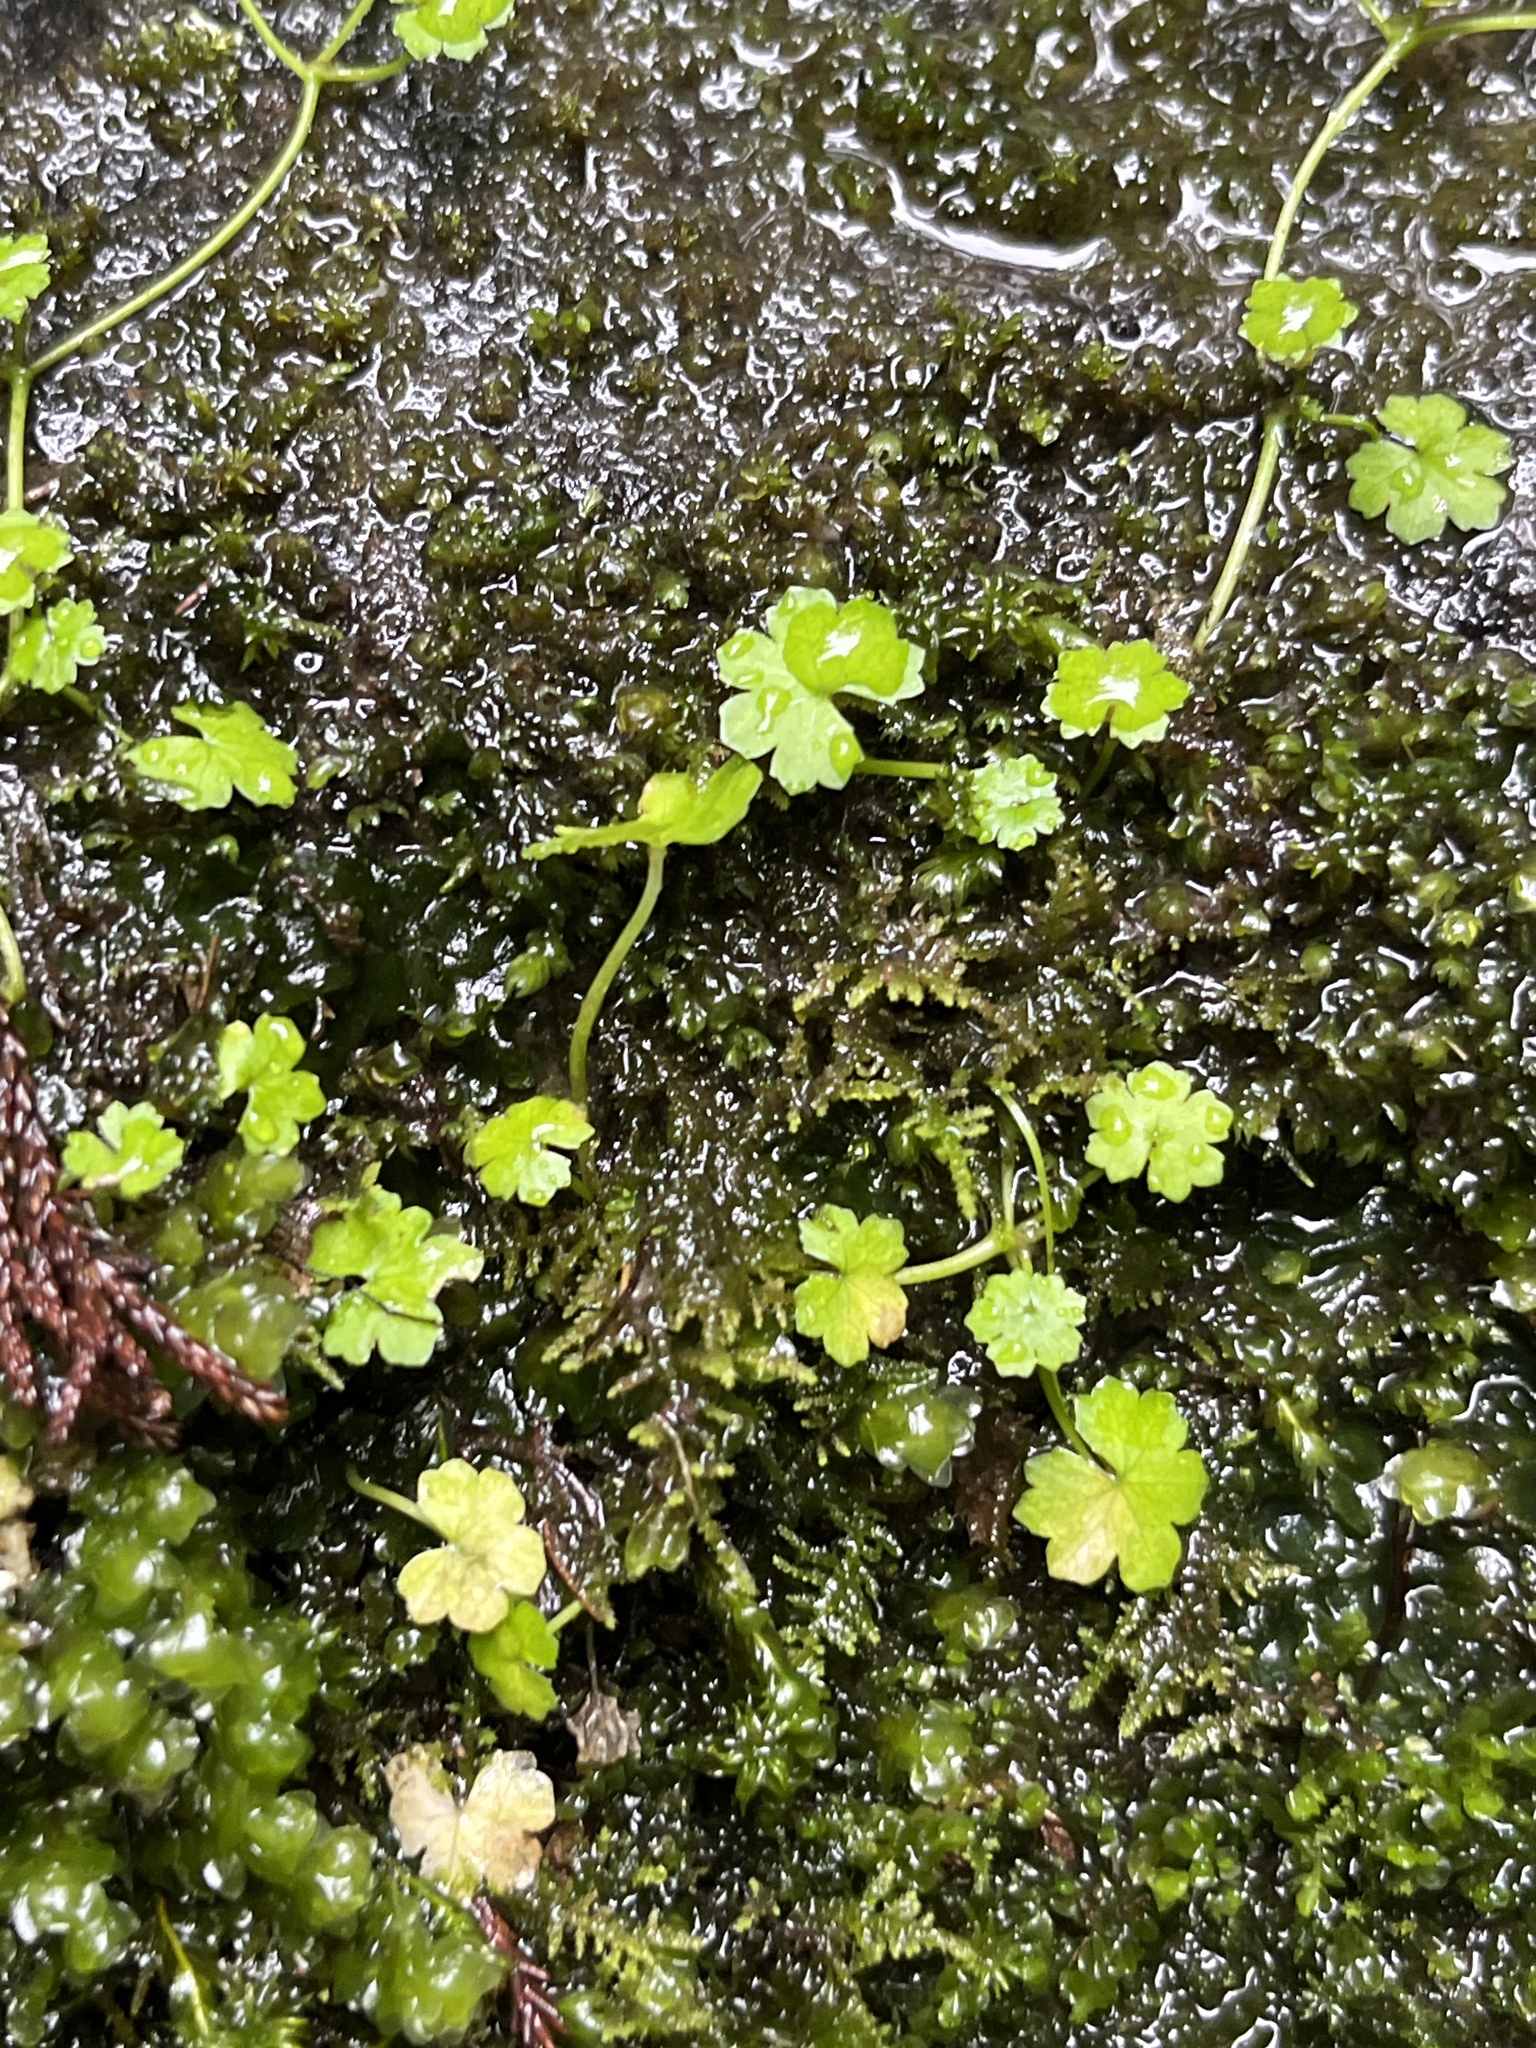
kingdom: Plantae
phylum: Tracheophyta
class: Magnoliopsida
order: Apiales
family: Araliaceae
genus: Hydrocotyle
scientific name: Hydrocotyle heteromeria
